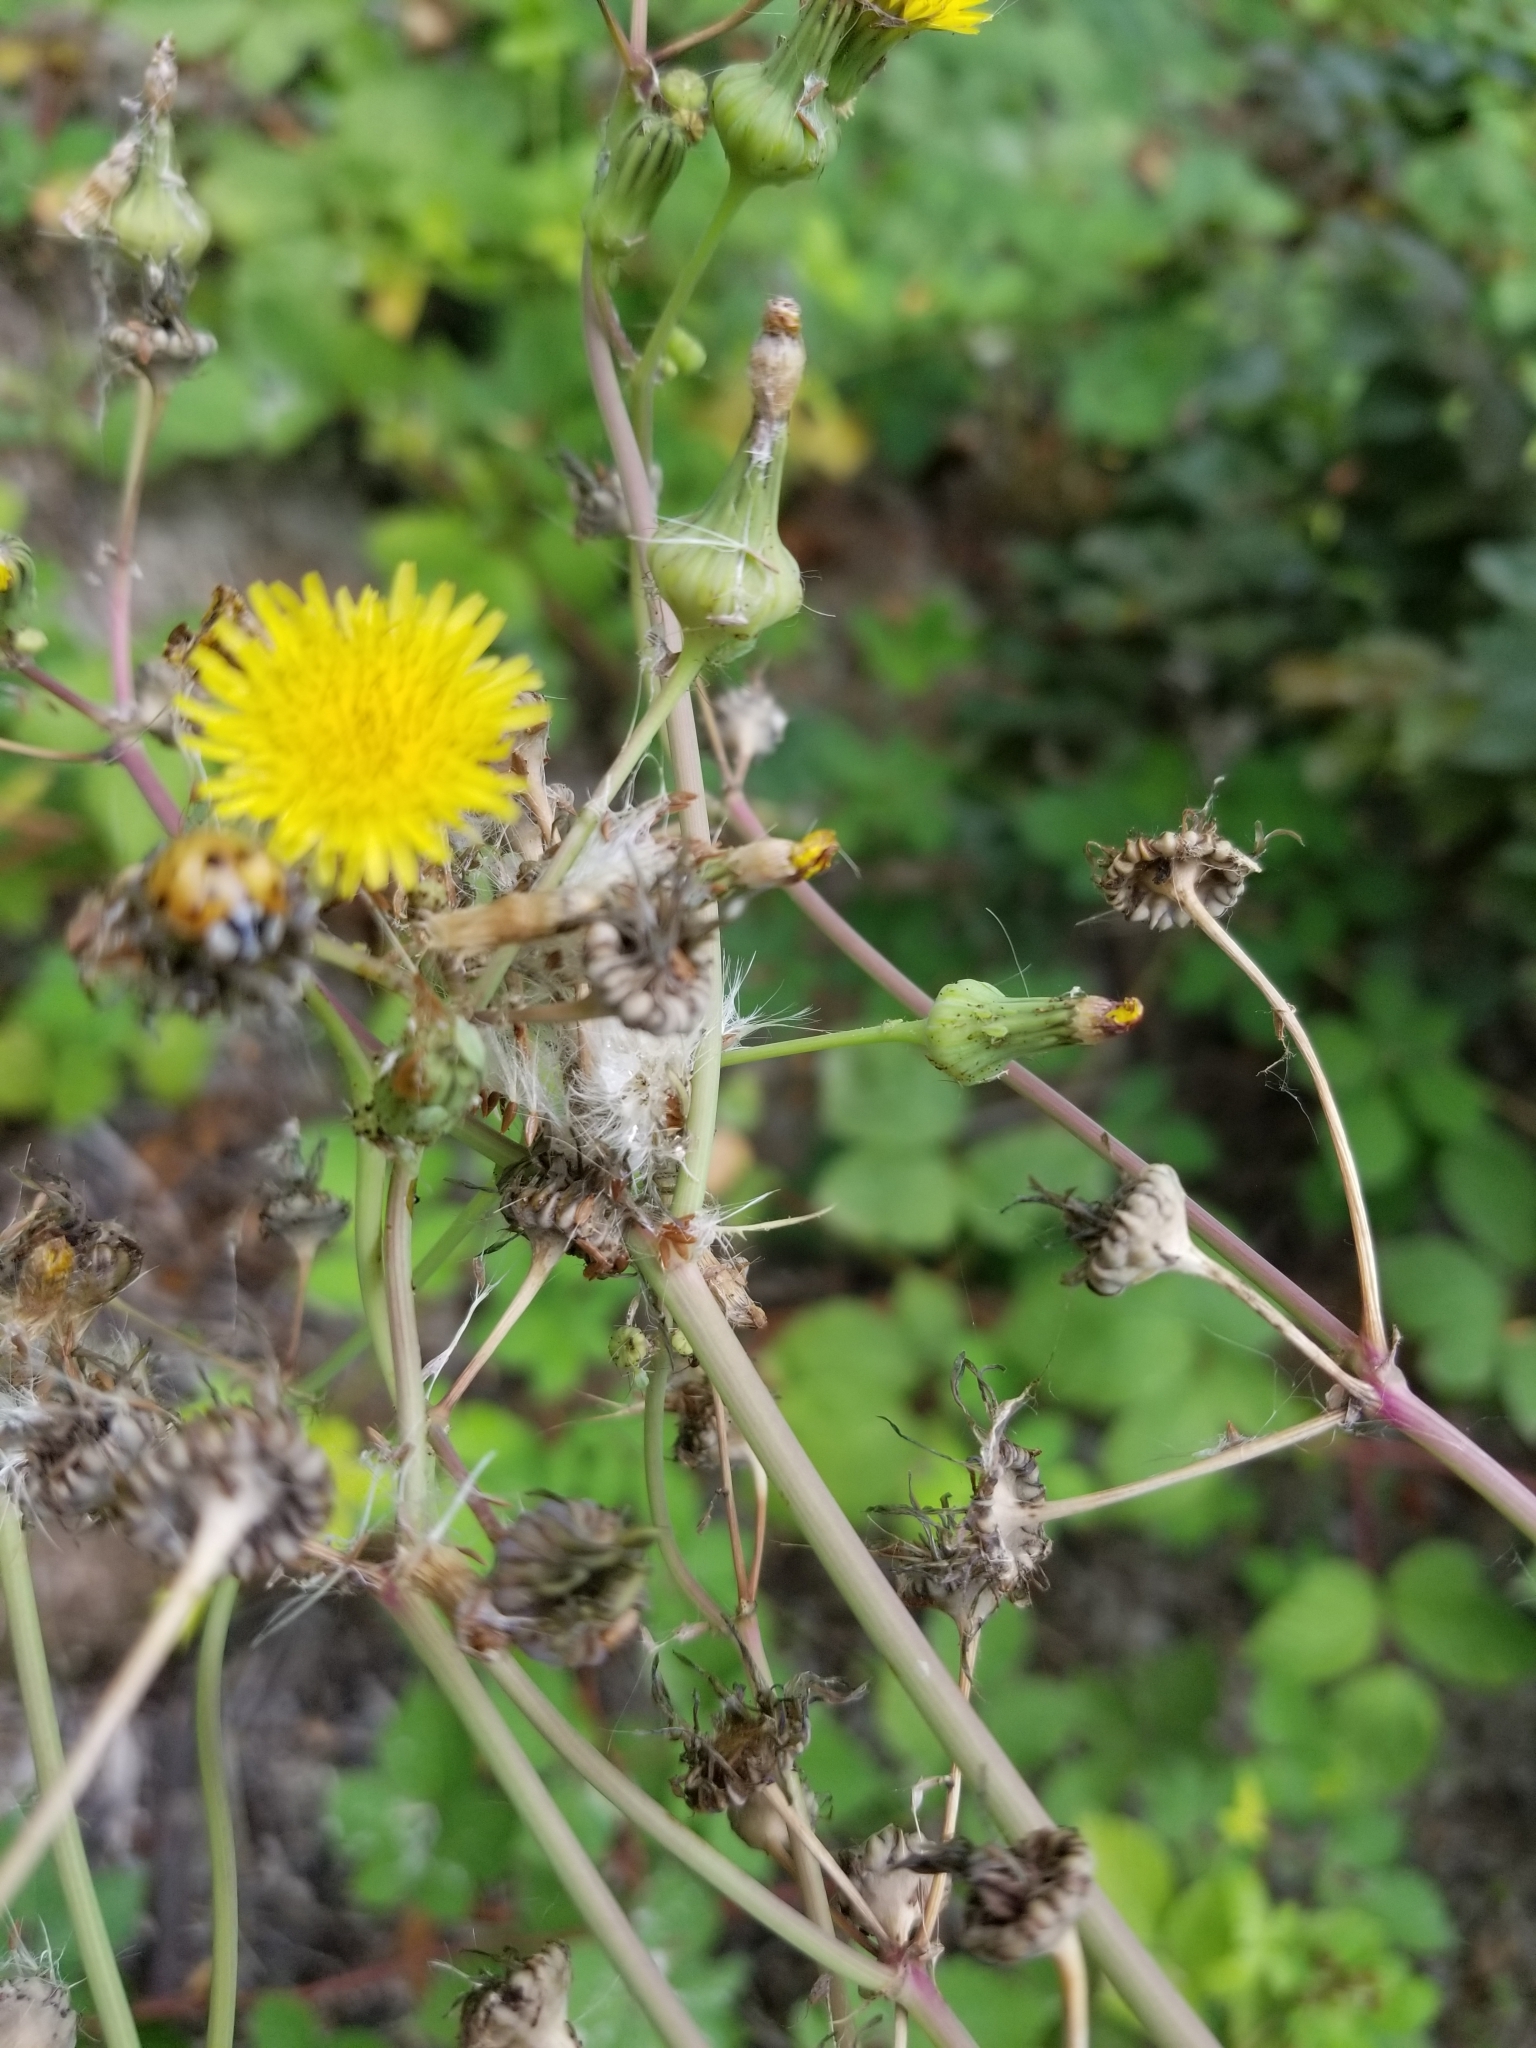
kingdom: Plantae
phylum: Tracheophyta
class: Magnoliopsida
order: Asterales
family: Asteraceae
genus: Sonchus
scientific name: Sonchus asper
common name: Prickly sow-thistle
